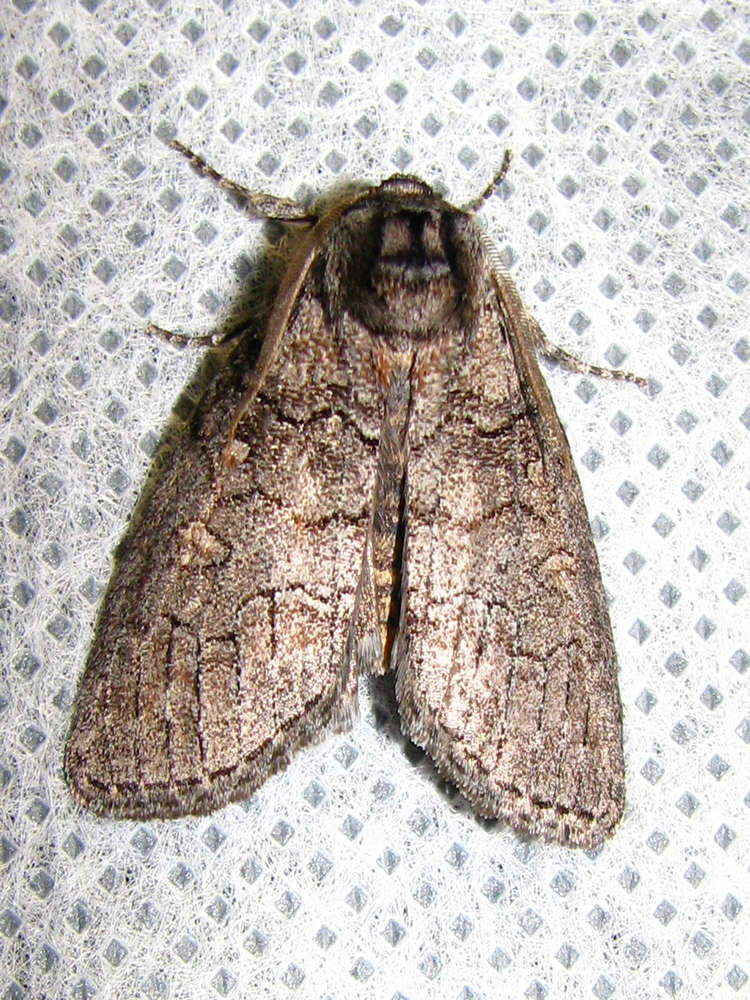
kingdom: Animalia
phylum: Arthropoda
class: Insecta
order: Lepidoptera
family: Oenosandridae
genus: Discophlebia
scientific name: Discophlebia celaena
